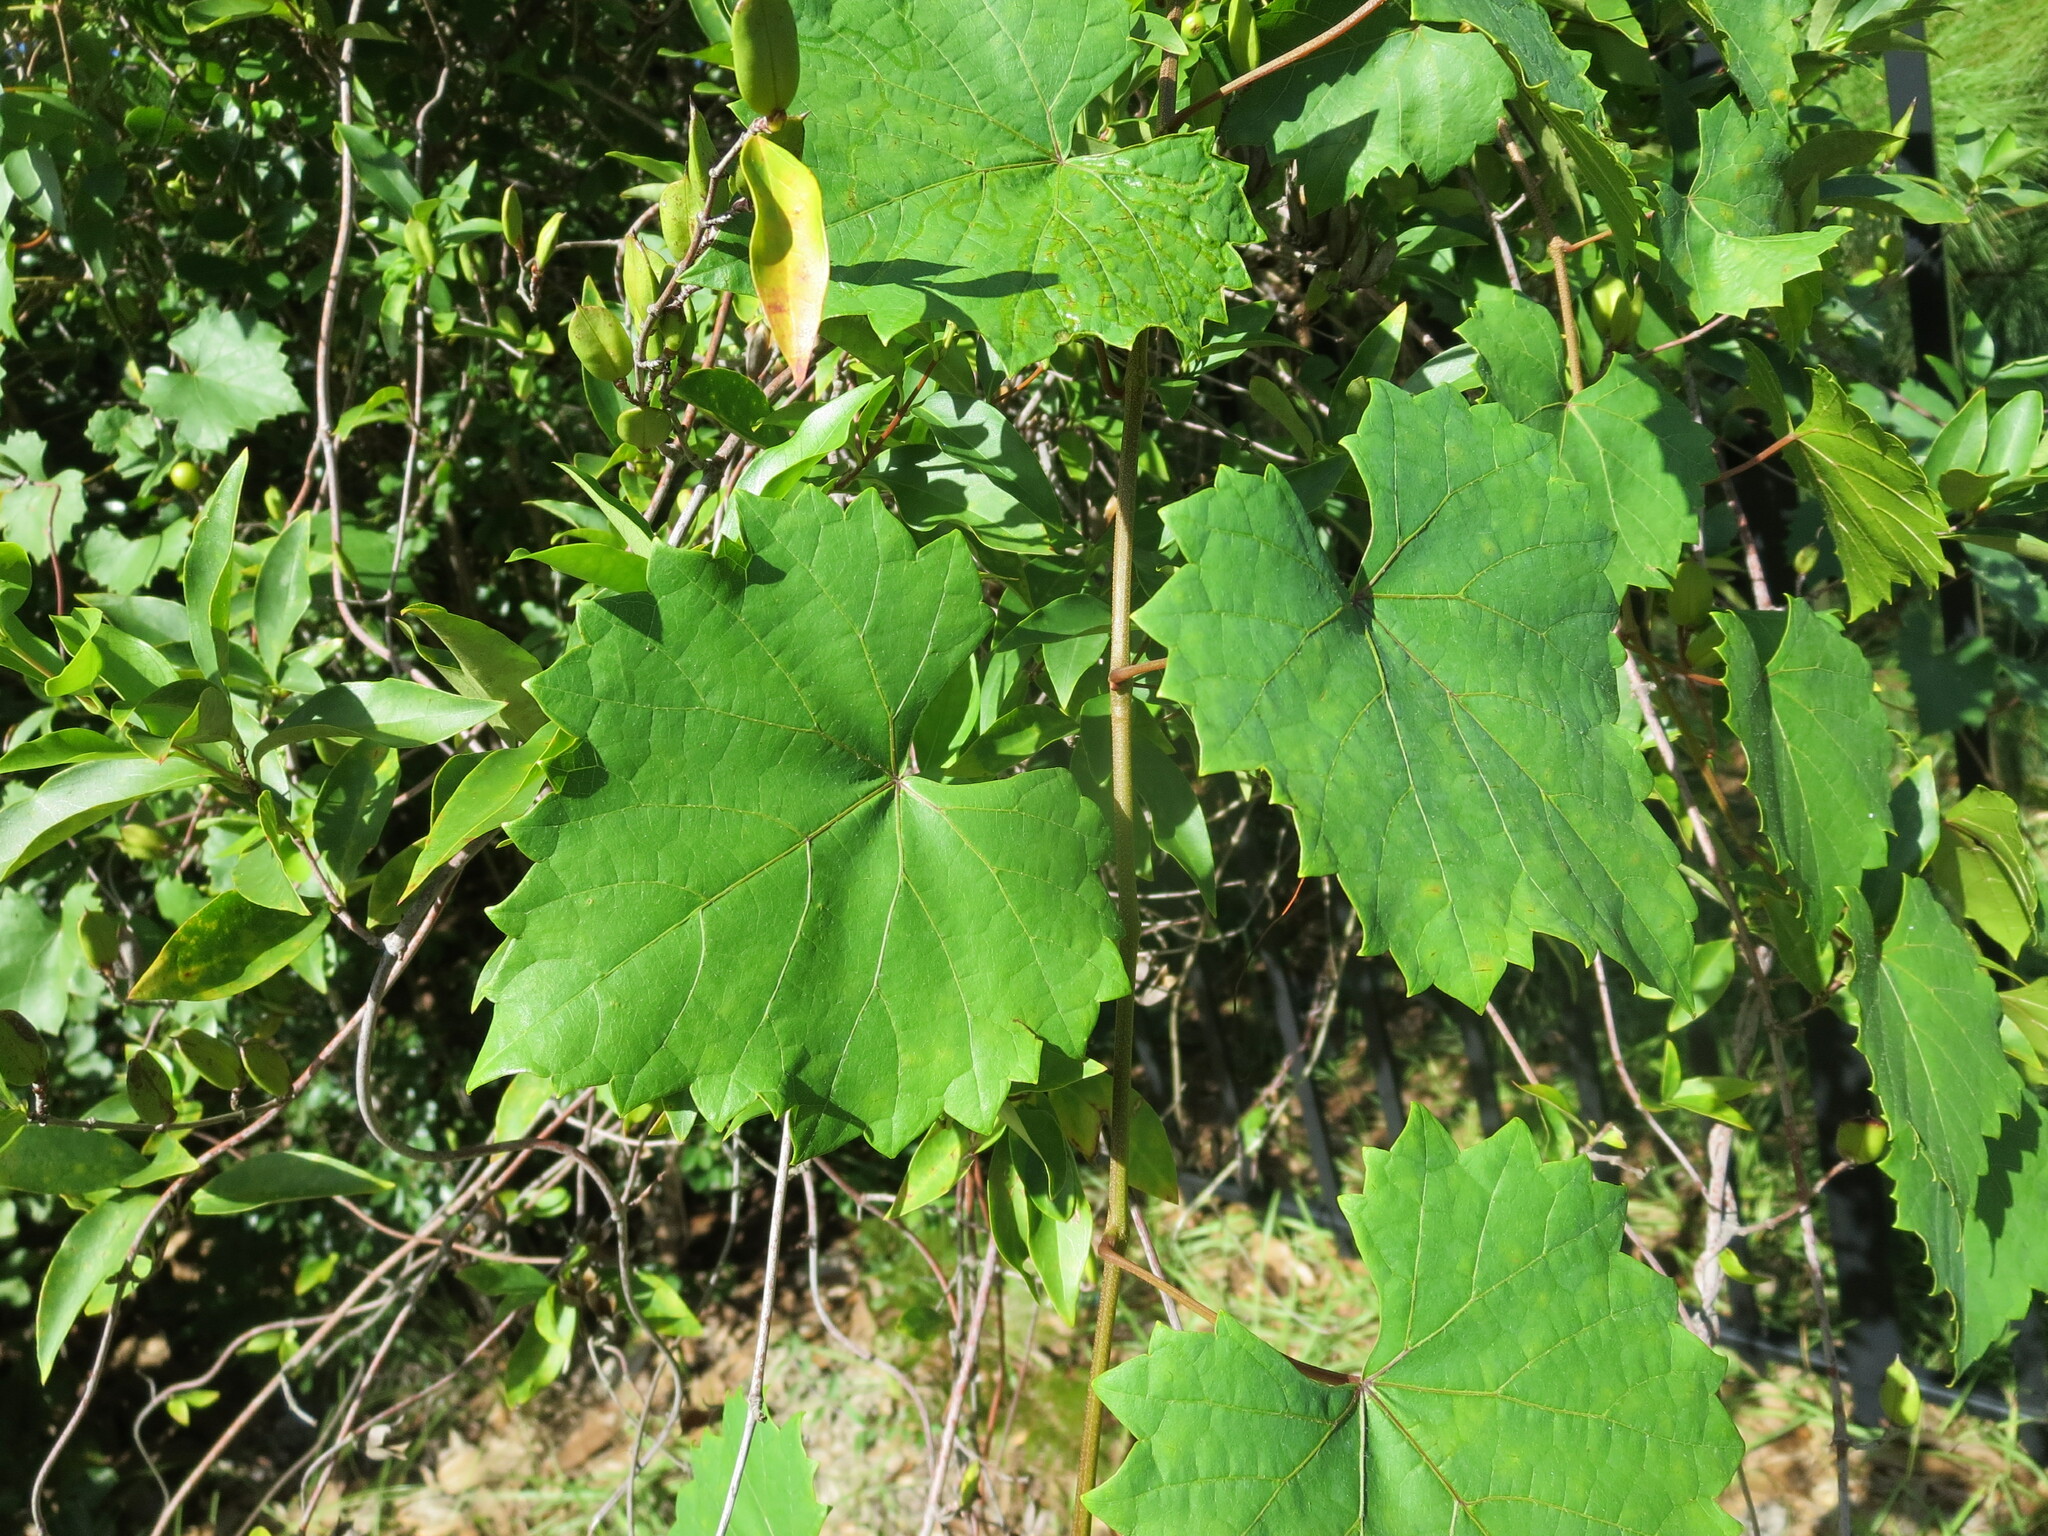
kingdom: Plantae
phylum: Tracheophyta
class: Magnoliopsida
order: Vitales
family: Vitaceae
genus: Vitis
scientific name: Vitis rotundifolia
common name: Muscadine grape
